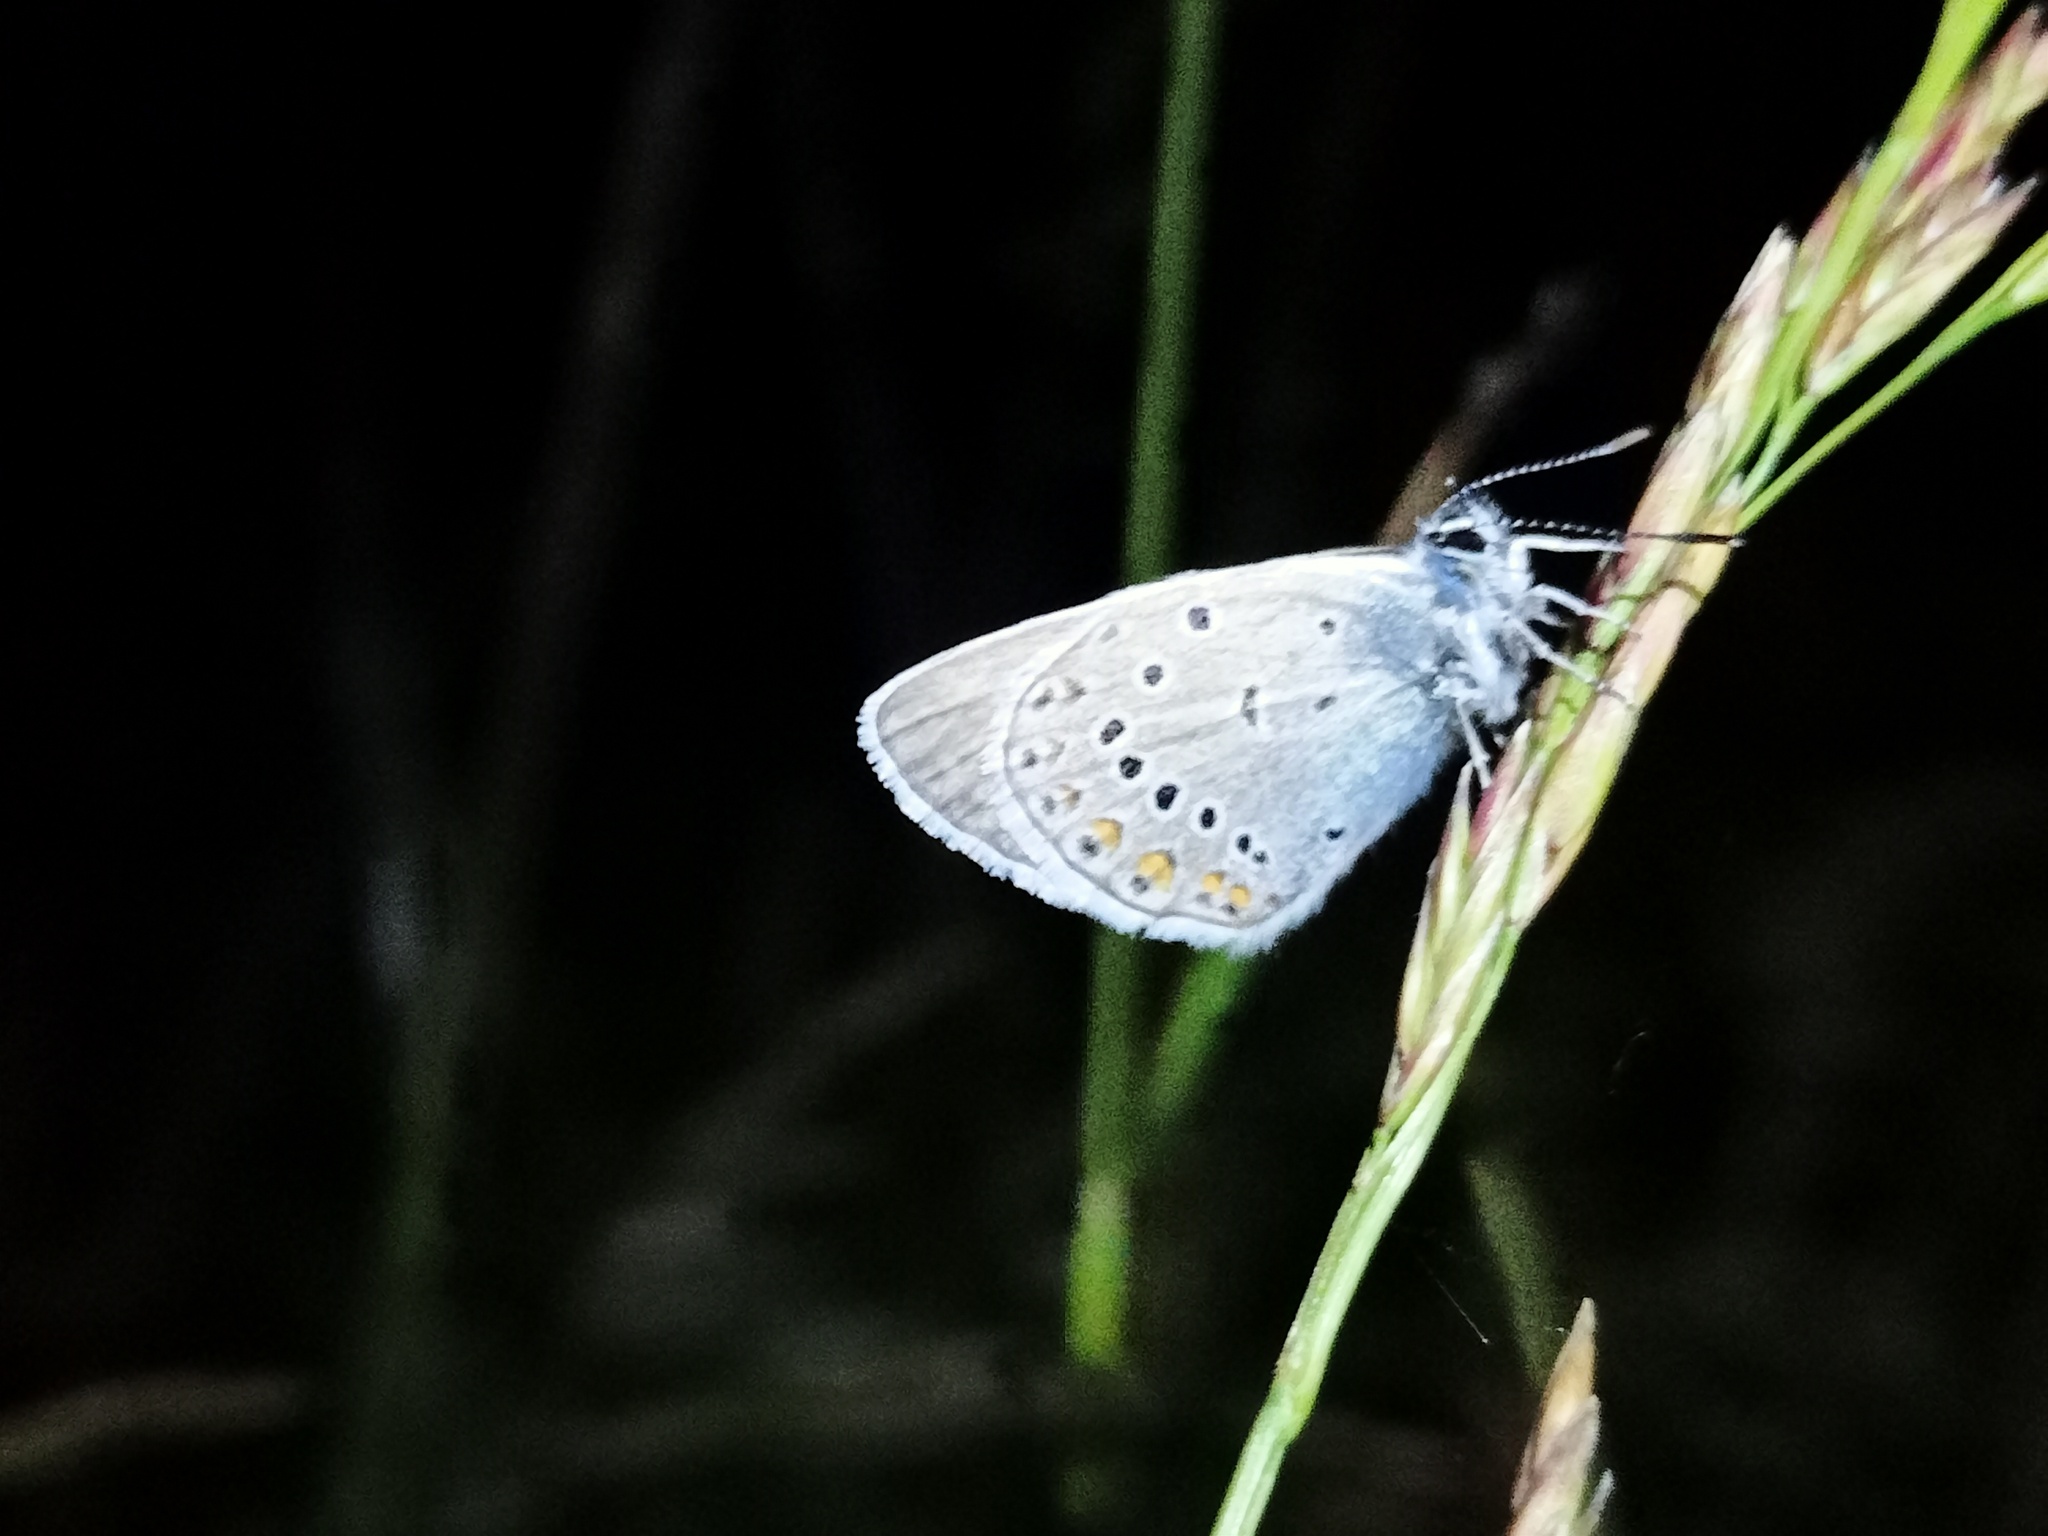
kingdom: Animalia
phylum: Arthropoda
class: Insecta
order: Lepidoptera
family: Lycaenidae
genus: Plebejus
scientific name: Plebejus amanda
